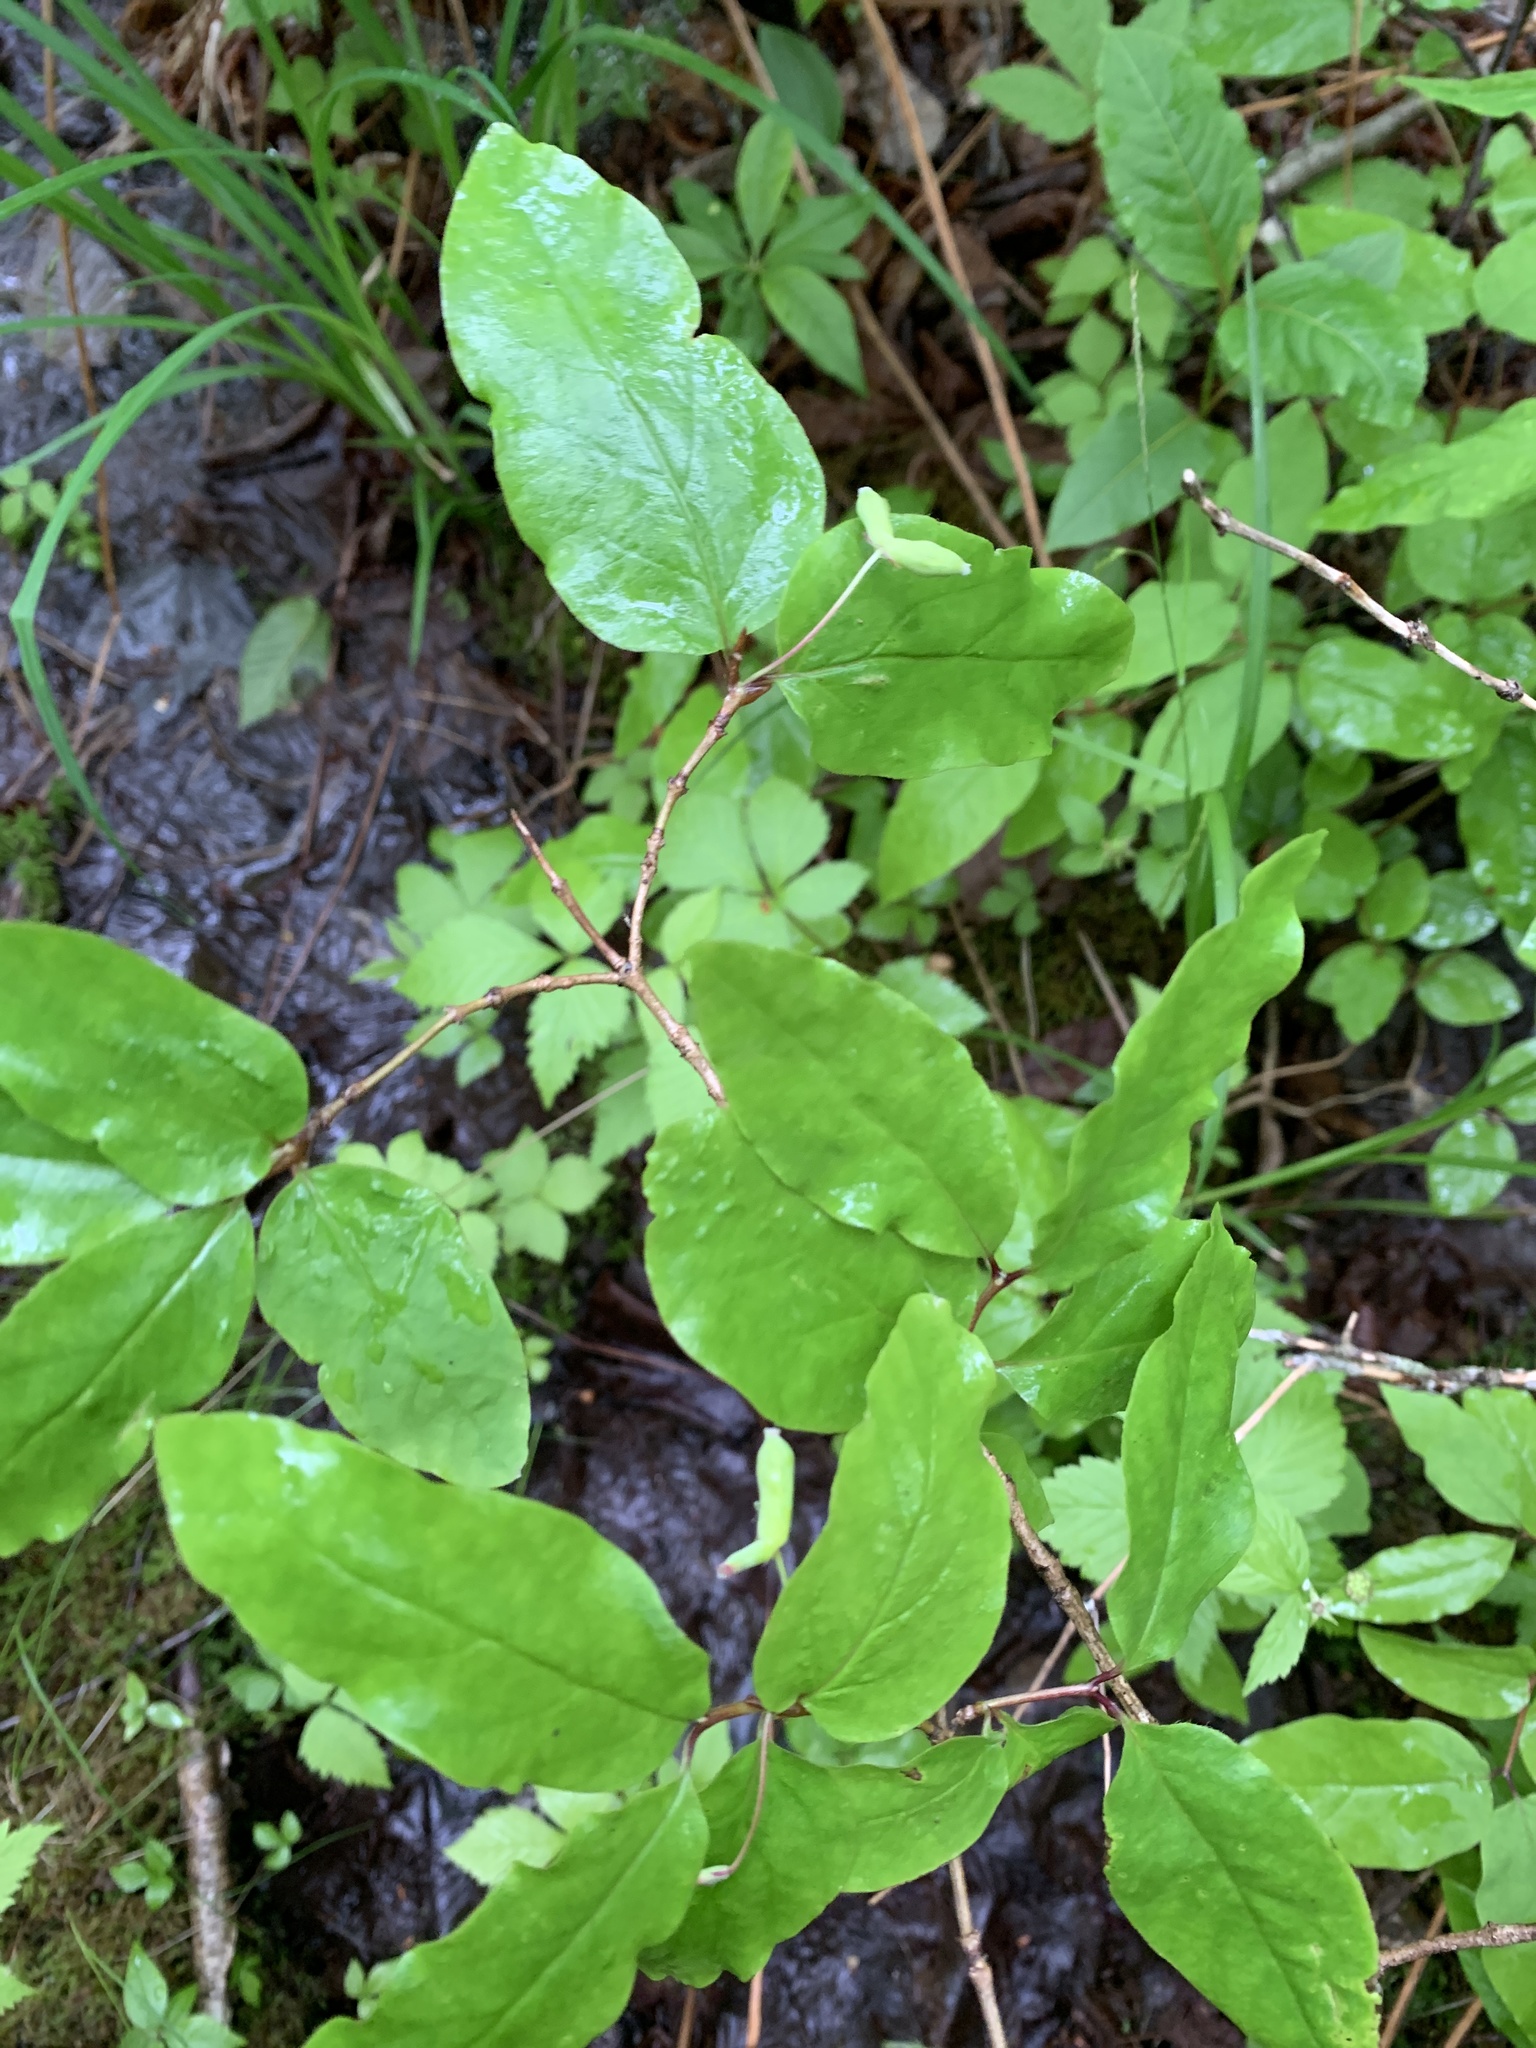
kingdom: Plantae
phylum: Tracheophyta
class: Magnoliopsida
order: Dipsacales
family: Caprifoliaceae
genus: Lonicera
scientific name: Lonicera canadensis
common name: American fly-honeysuckle
